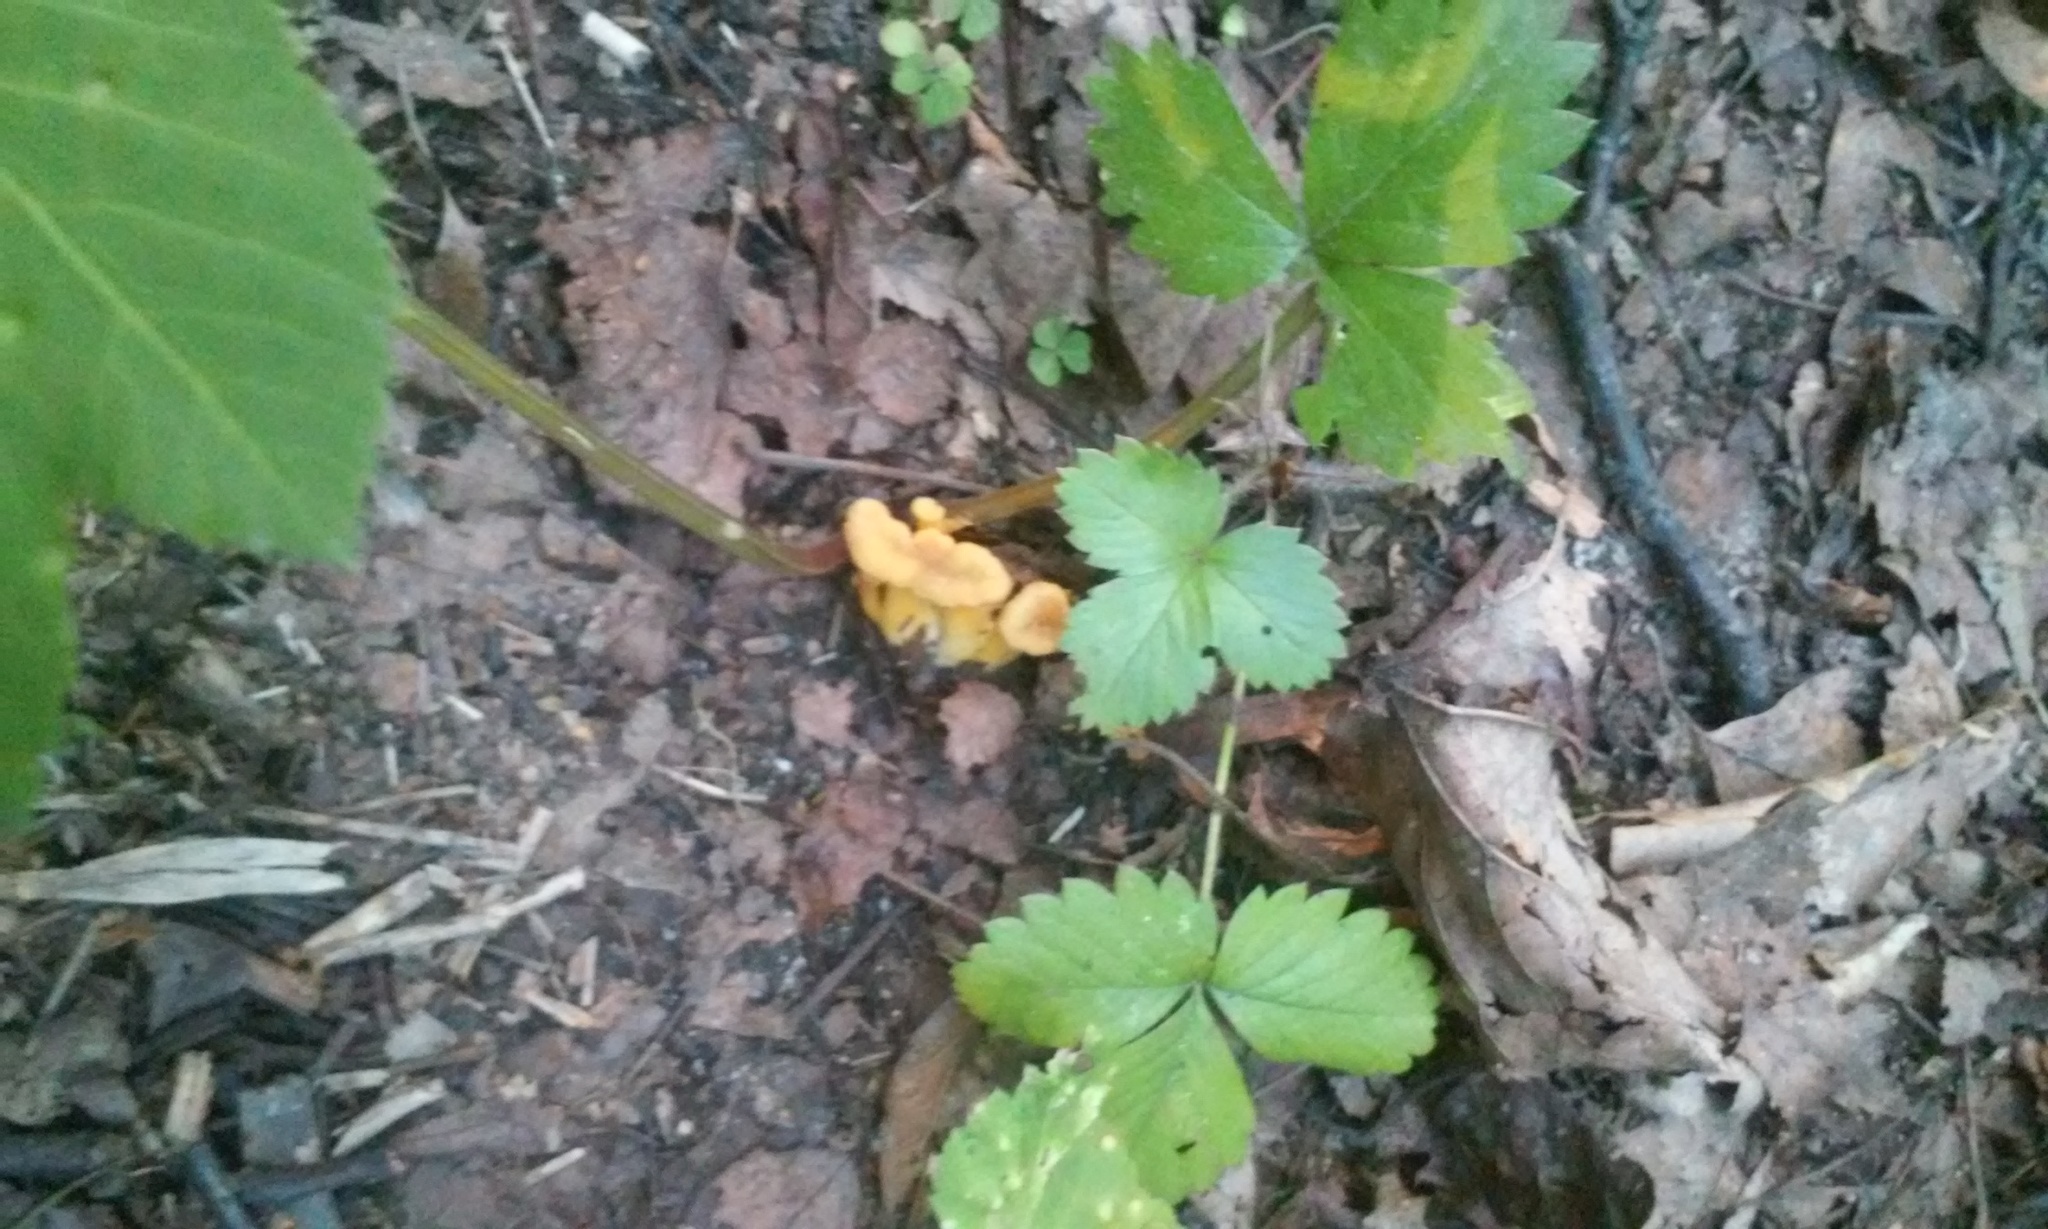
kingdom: Fungi
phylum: Basidiomycota
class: Agaricomycetes
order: Cantharellales
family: Hydnaceae
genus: Craterellus
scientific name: Craterellus tubaeformis
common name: Yellowfoot
